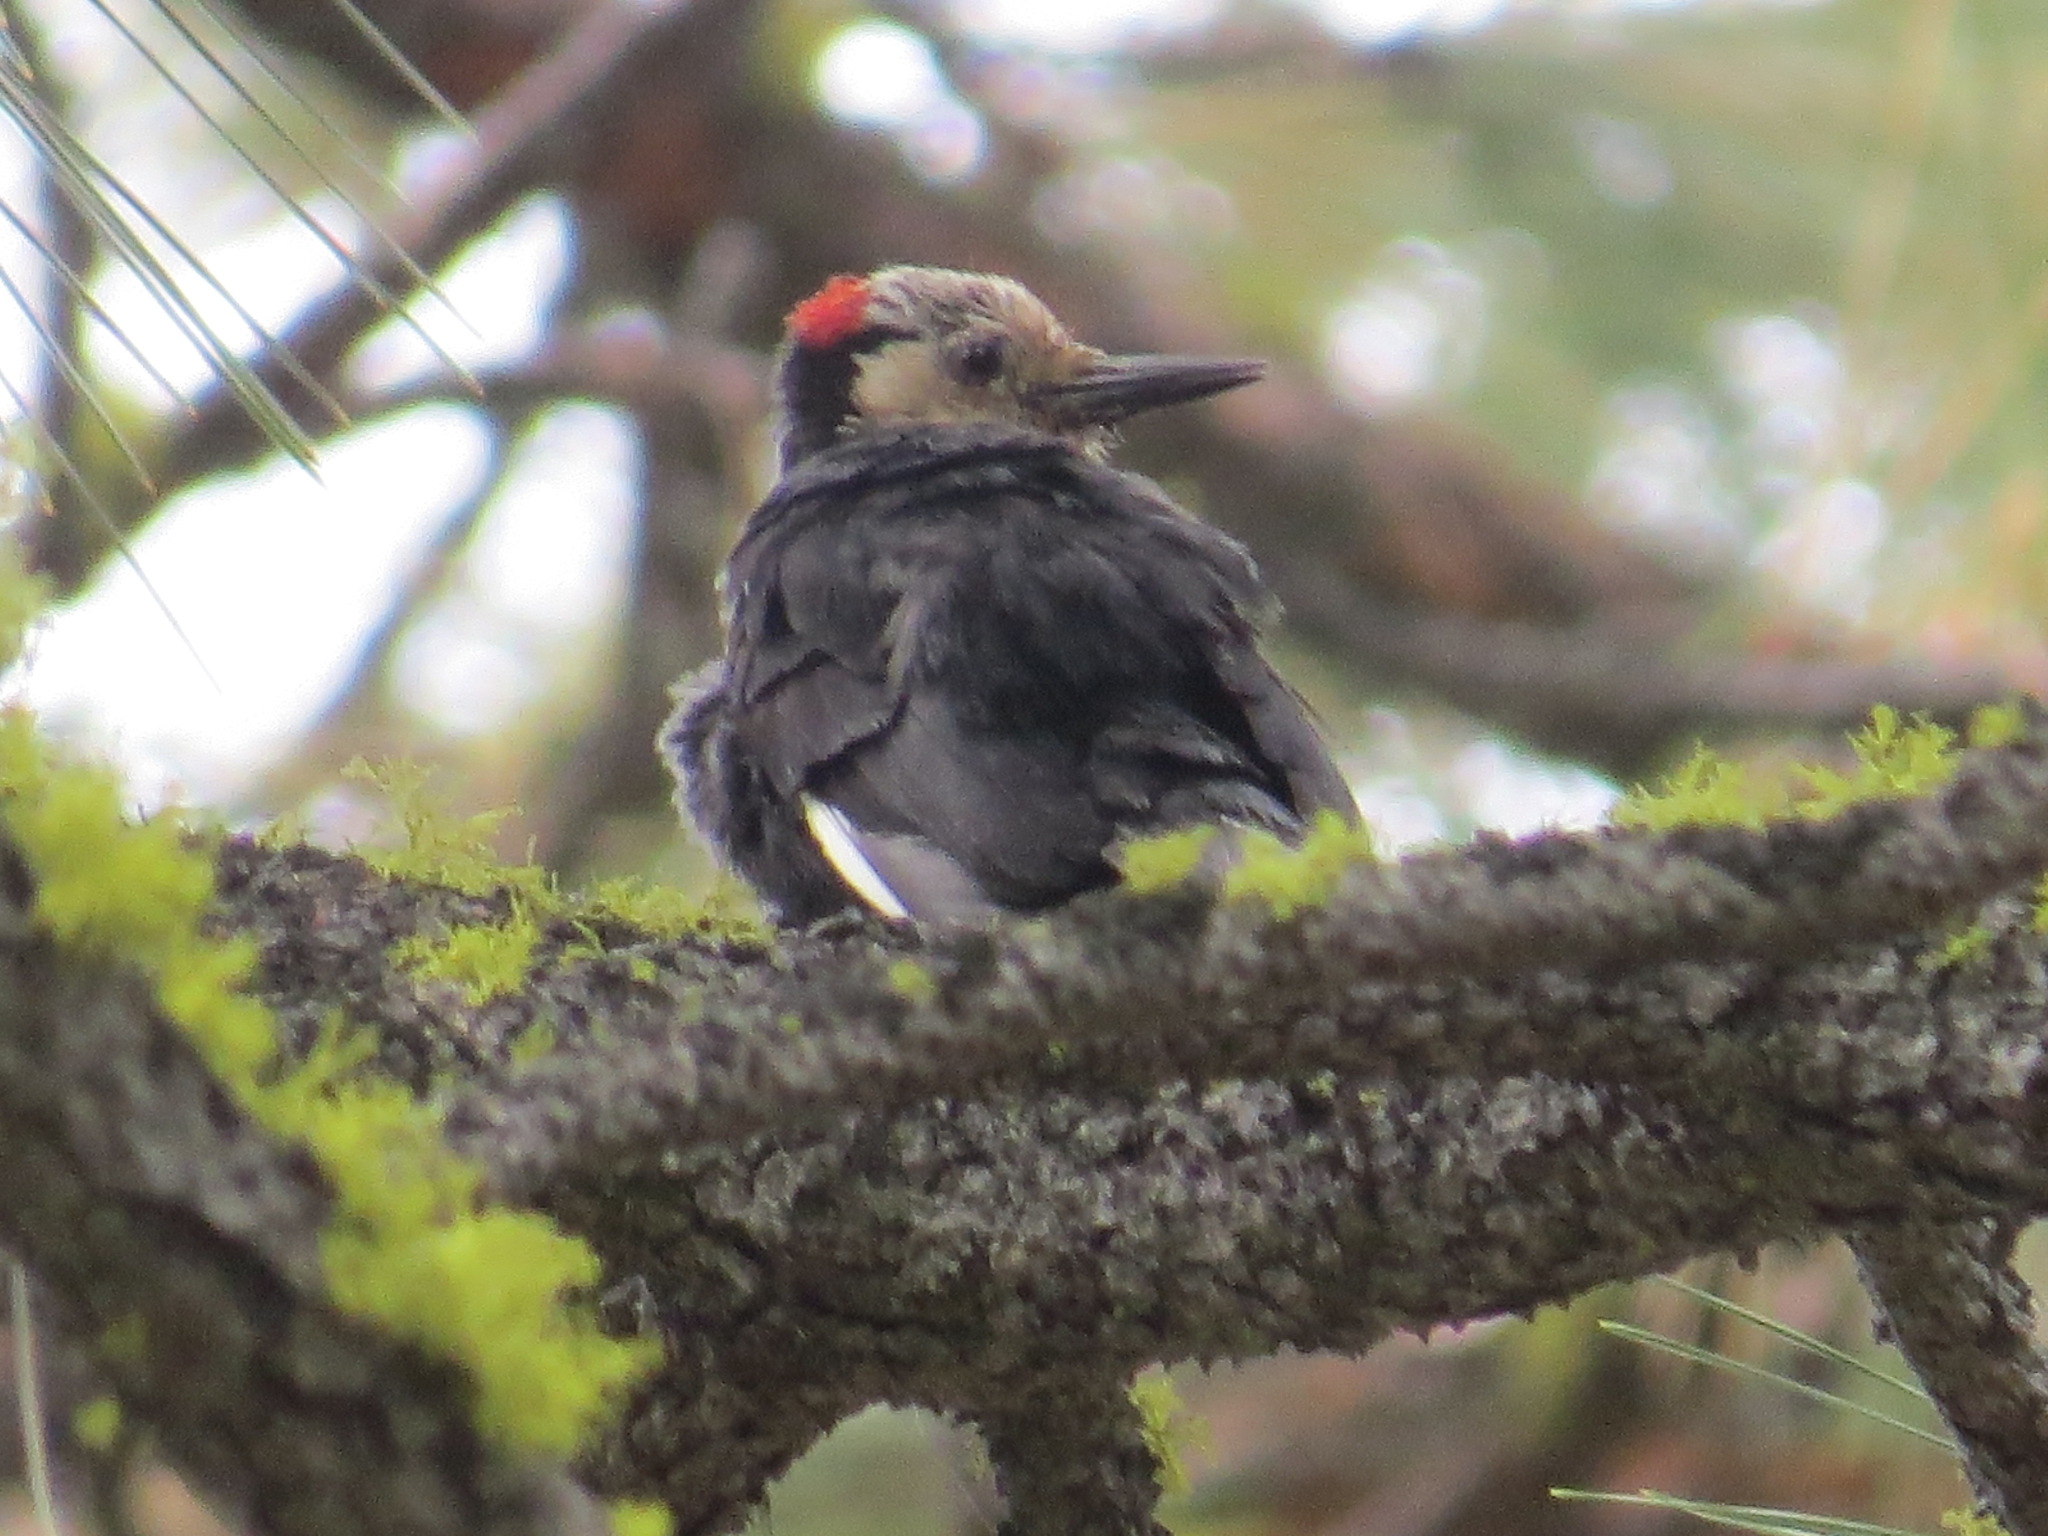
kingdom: Animalia
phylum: Chordata
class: Aves
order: Piciformes
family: Picidae
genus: Leuconotopicus
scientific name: Leuconotopicus albolarvatus
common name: White-headed woodpecker
